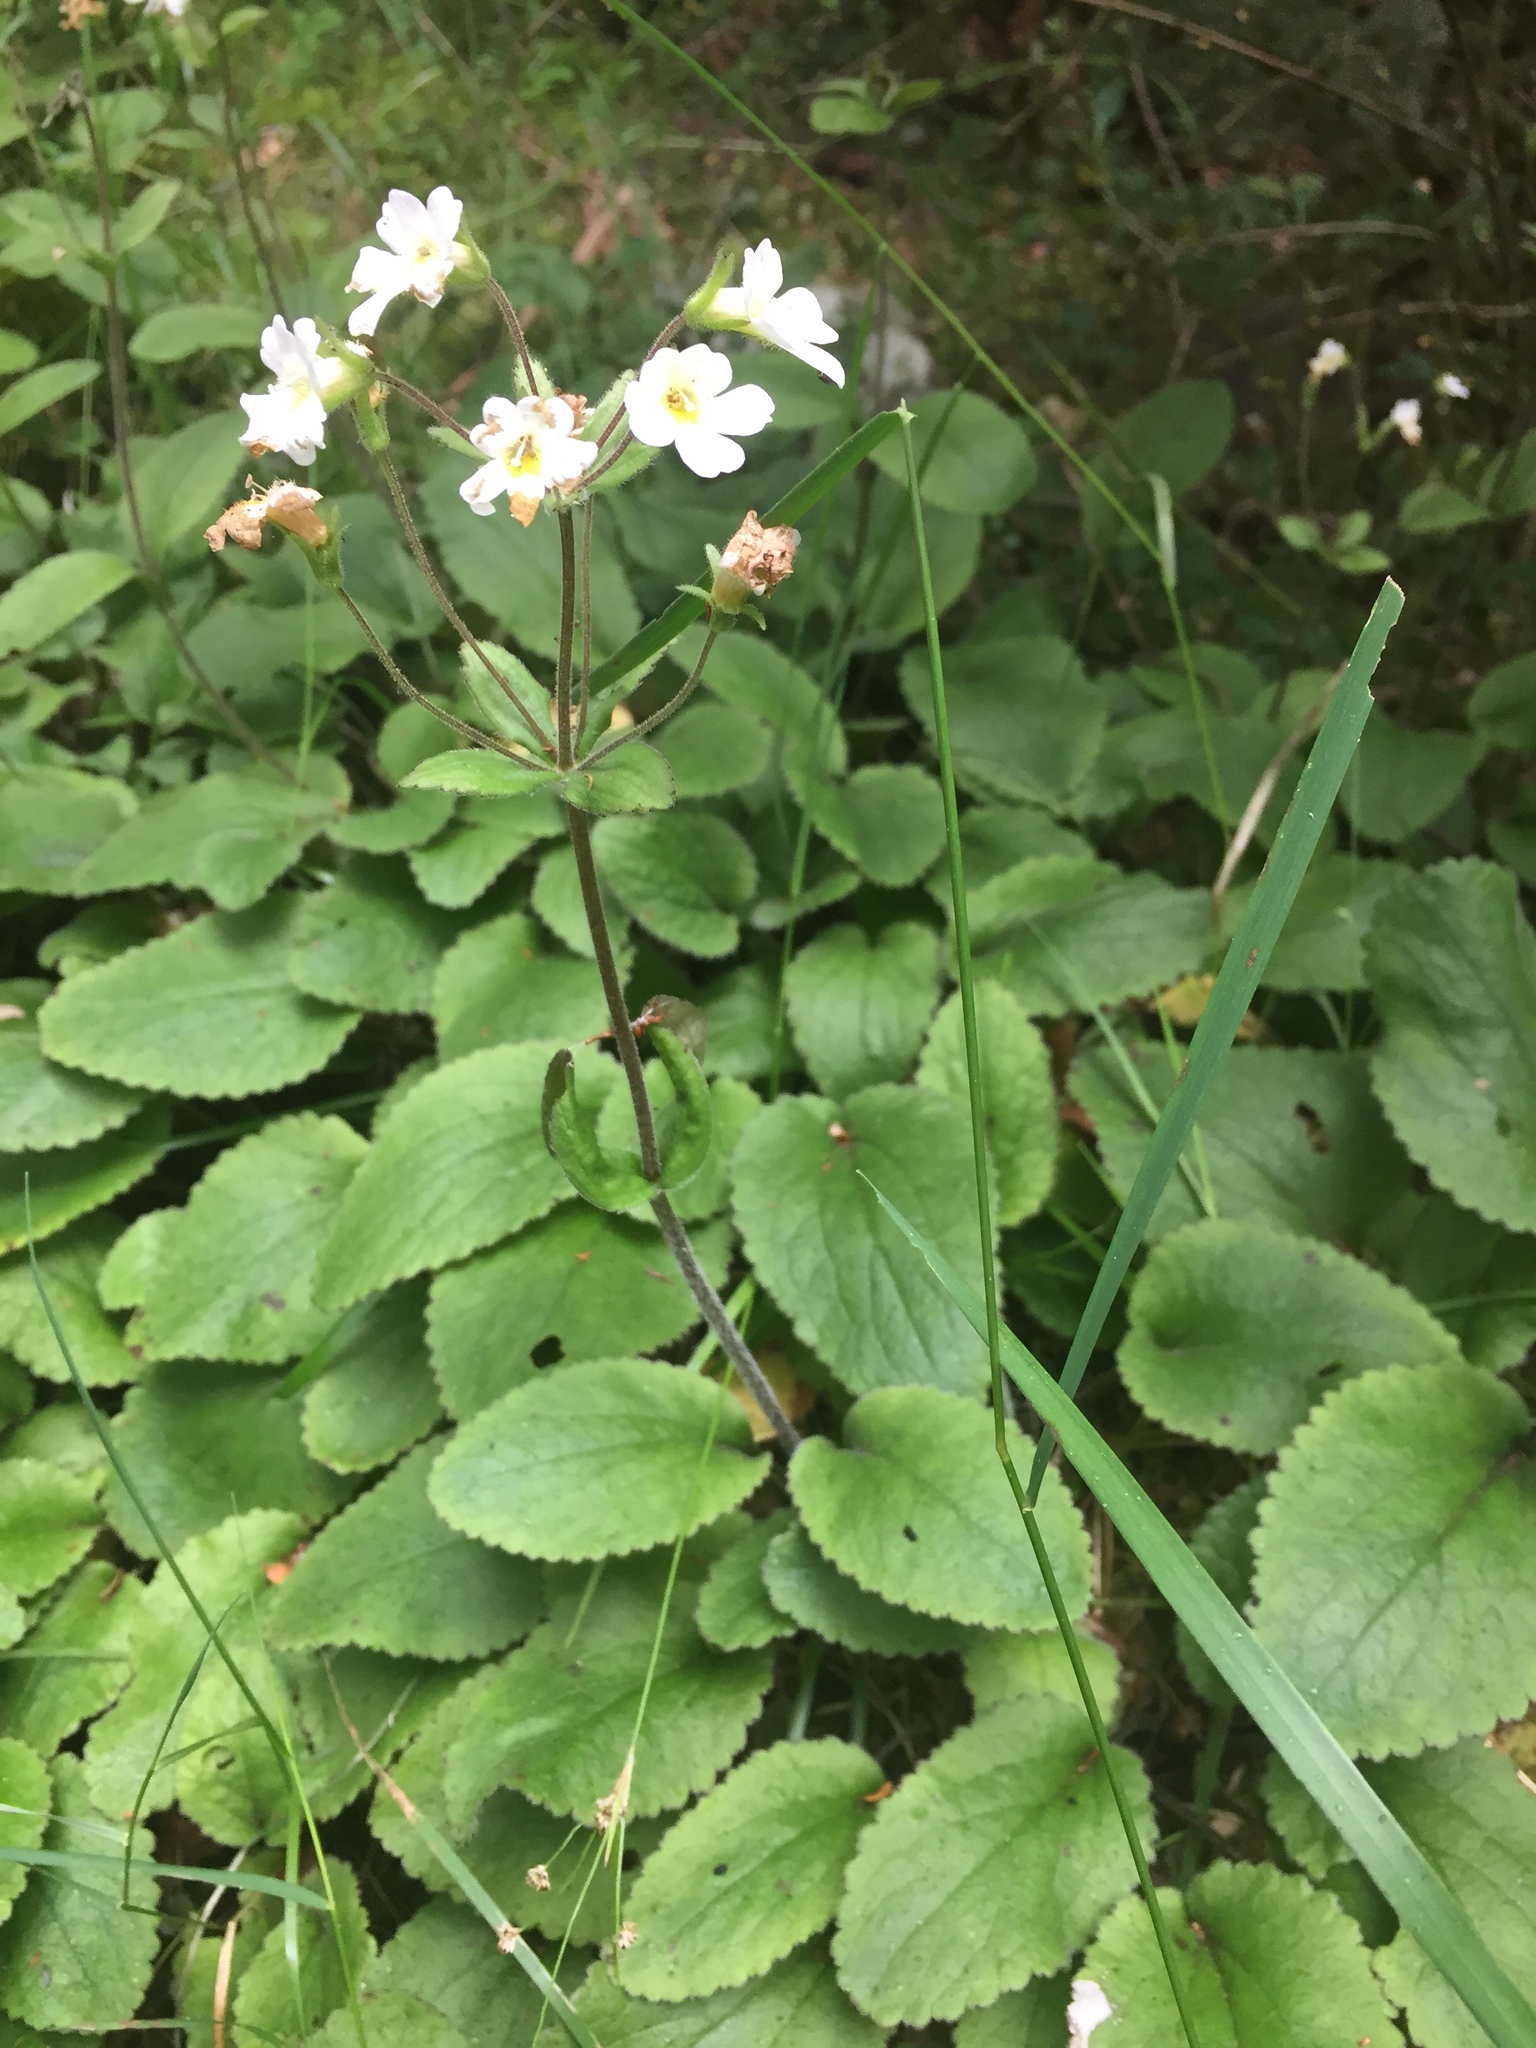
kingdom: Plantae
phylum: Tracheophyta
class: Magnoliopsida
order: Lamiales
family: Plantaginaceae
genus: Ourisia
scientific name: Ourisia macrophylla
